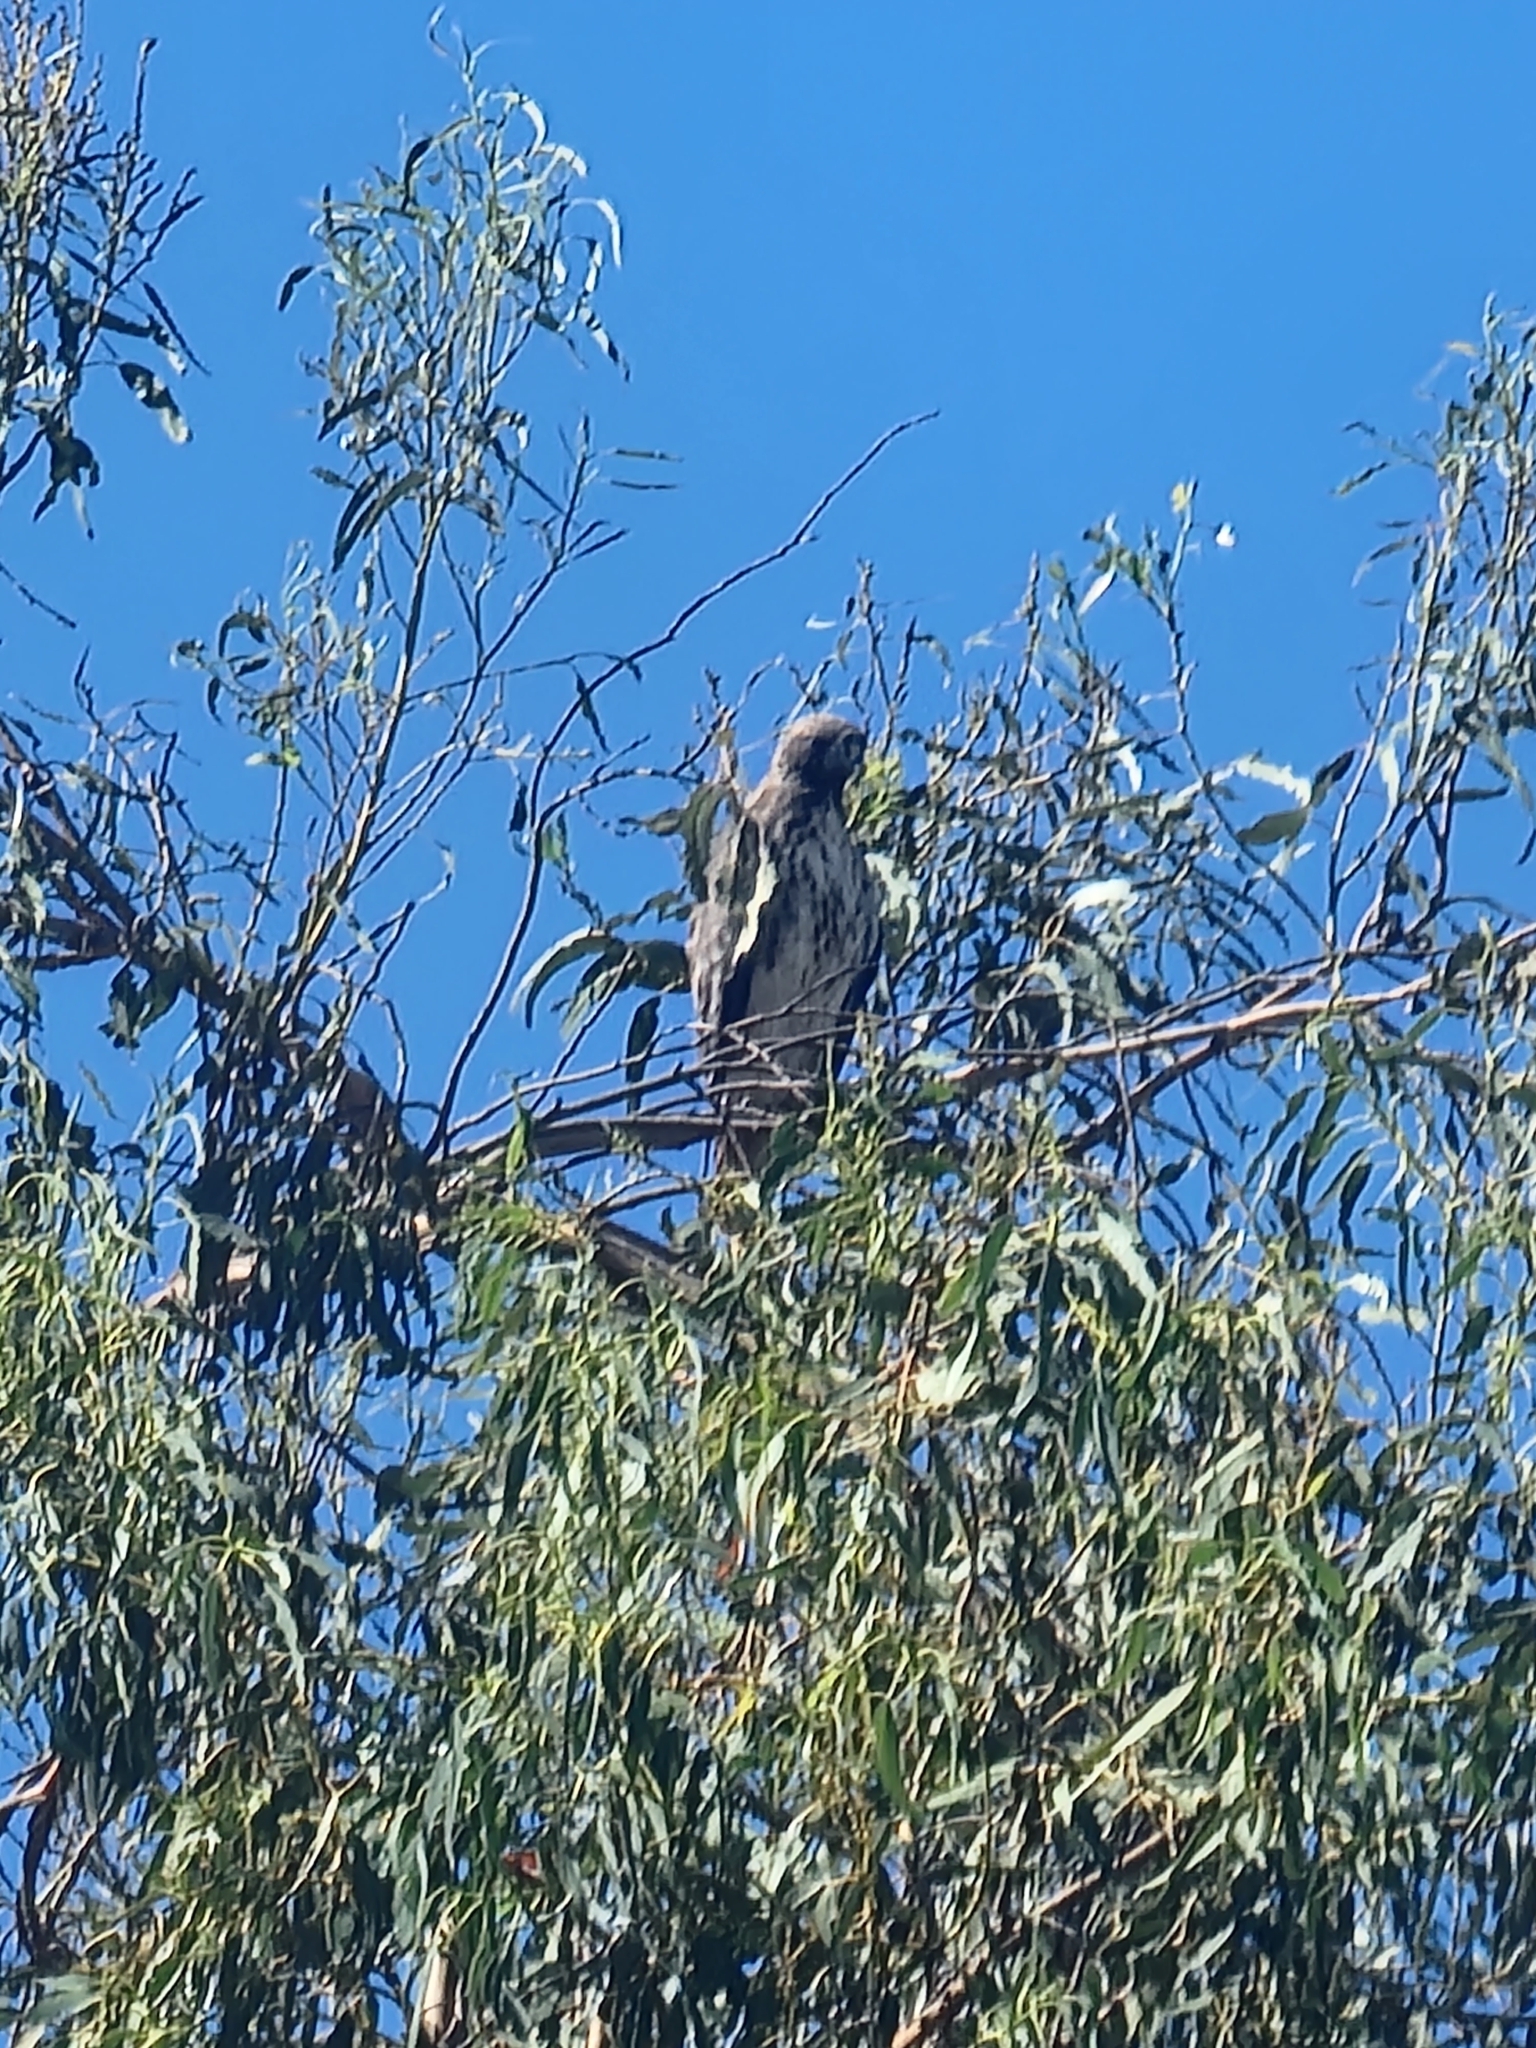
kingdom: Animalia
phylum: Chordata
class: Aves
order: Accipitriformes
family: Accipitridae
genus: Buteo
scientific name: Buteo jamaicensis
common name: Red-tailed hawk
